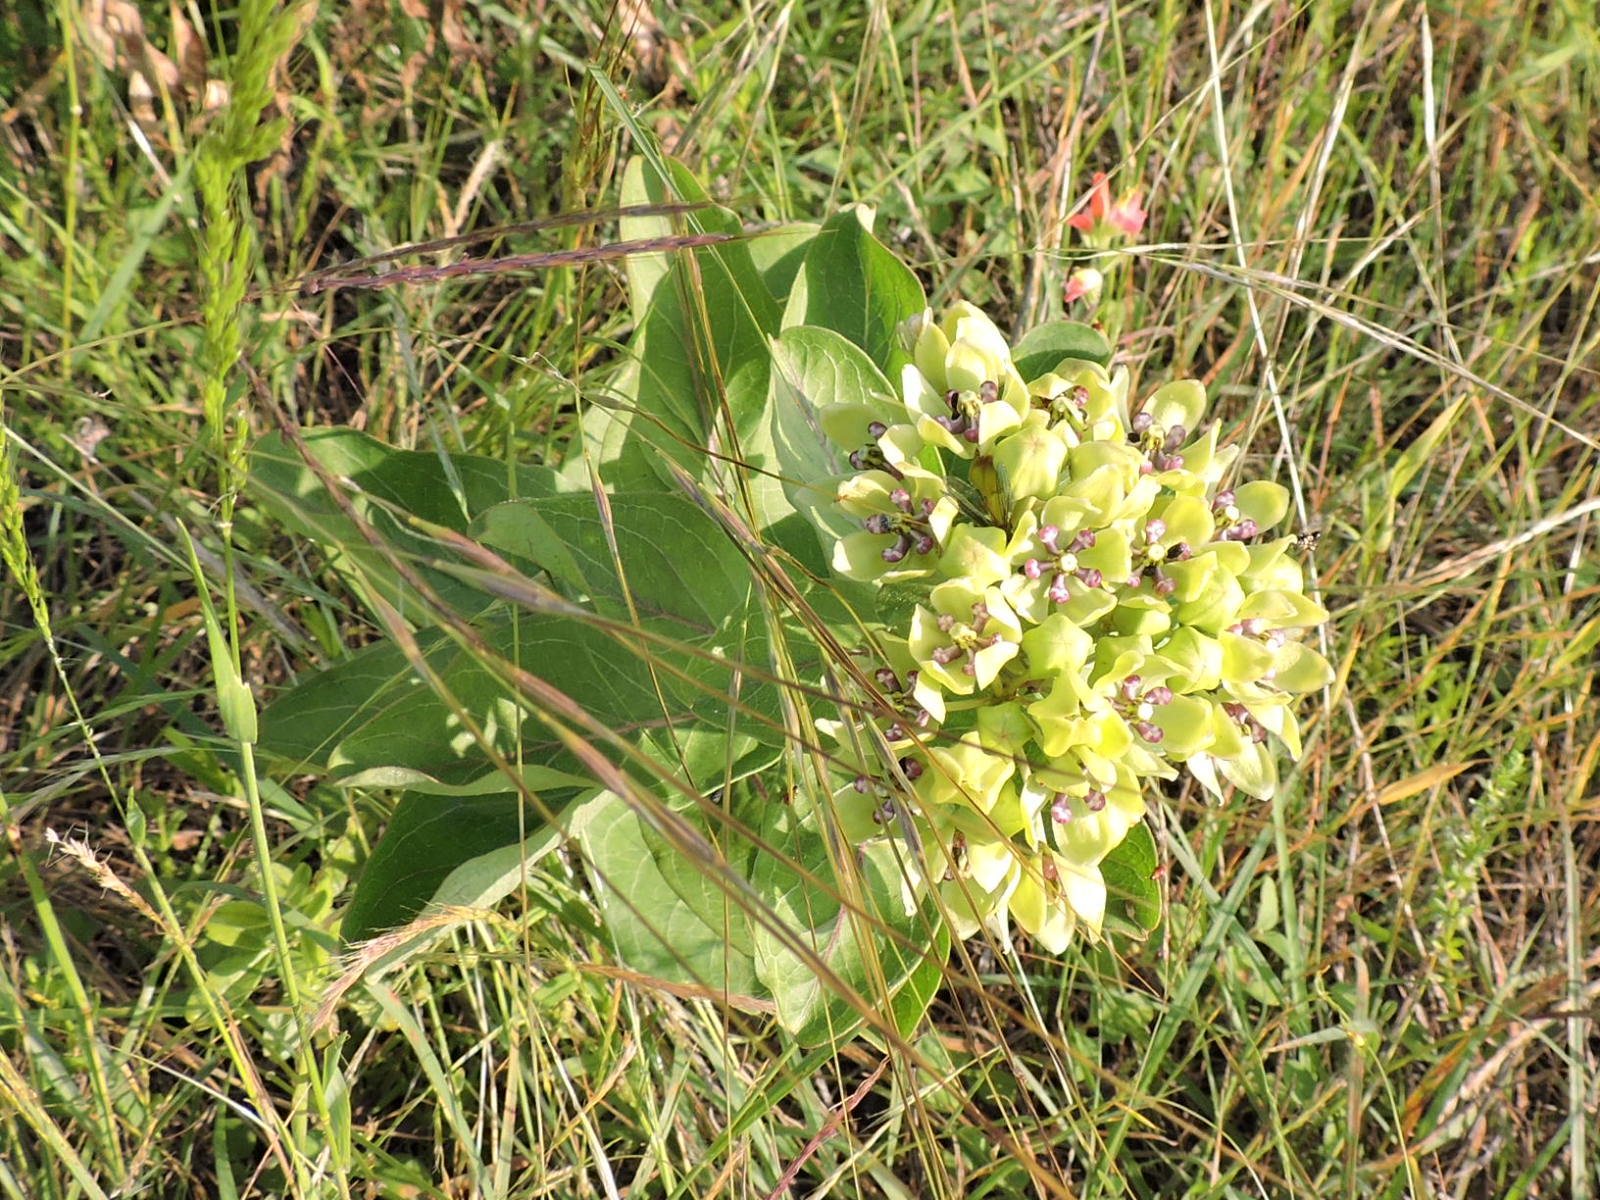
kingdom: Plantae
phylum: Tracheophyta
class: Magnoliopsida
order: Gentianales
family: Apocynaceae
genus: Asclepias
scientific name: Asclepias viridis
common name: Antelope-horns
